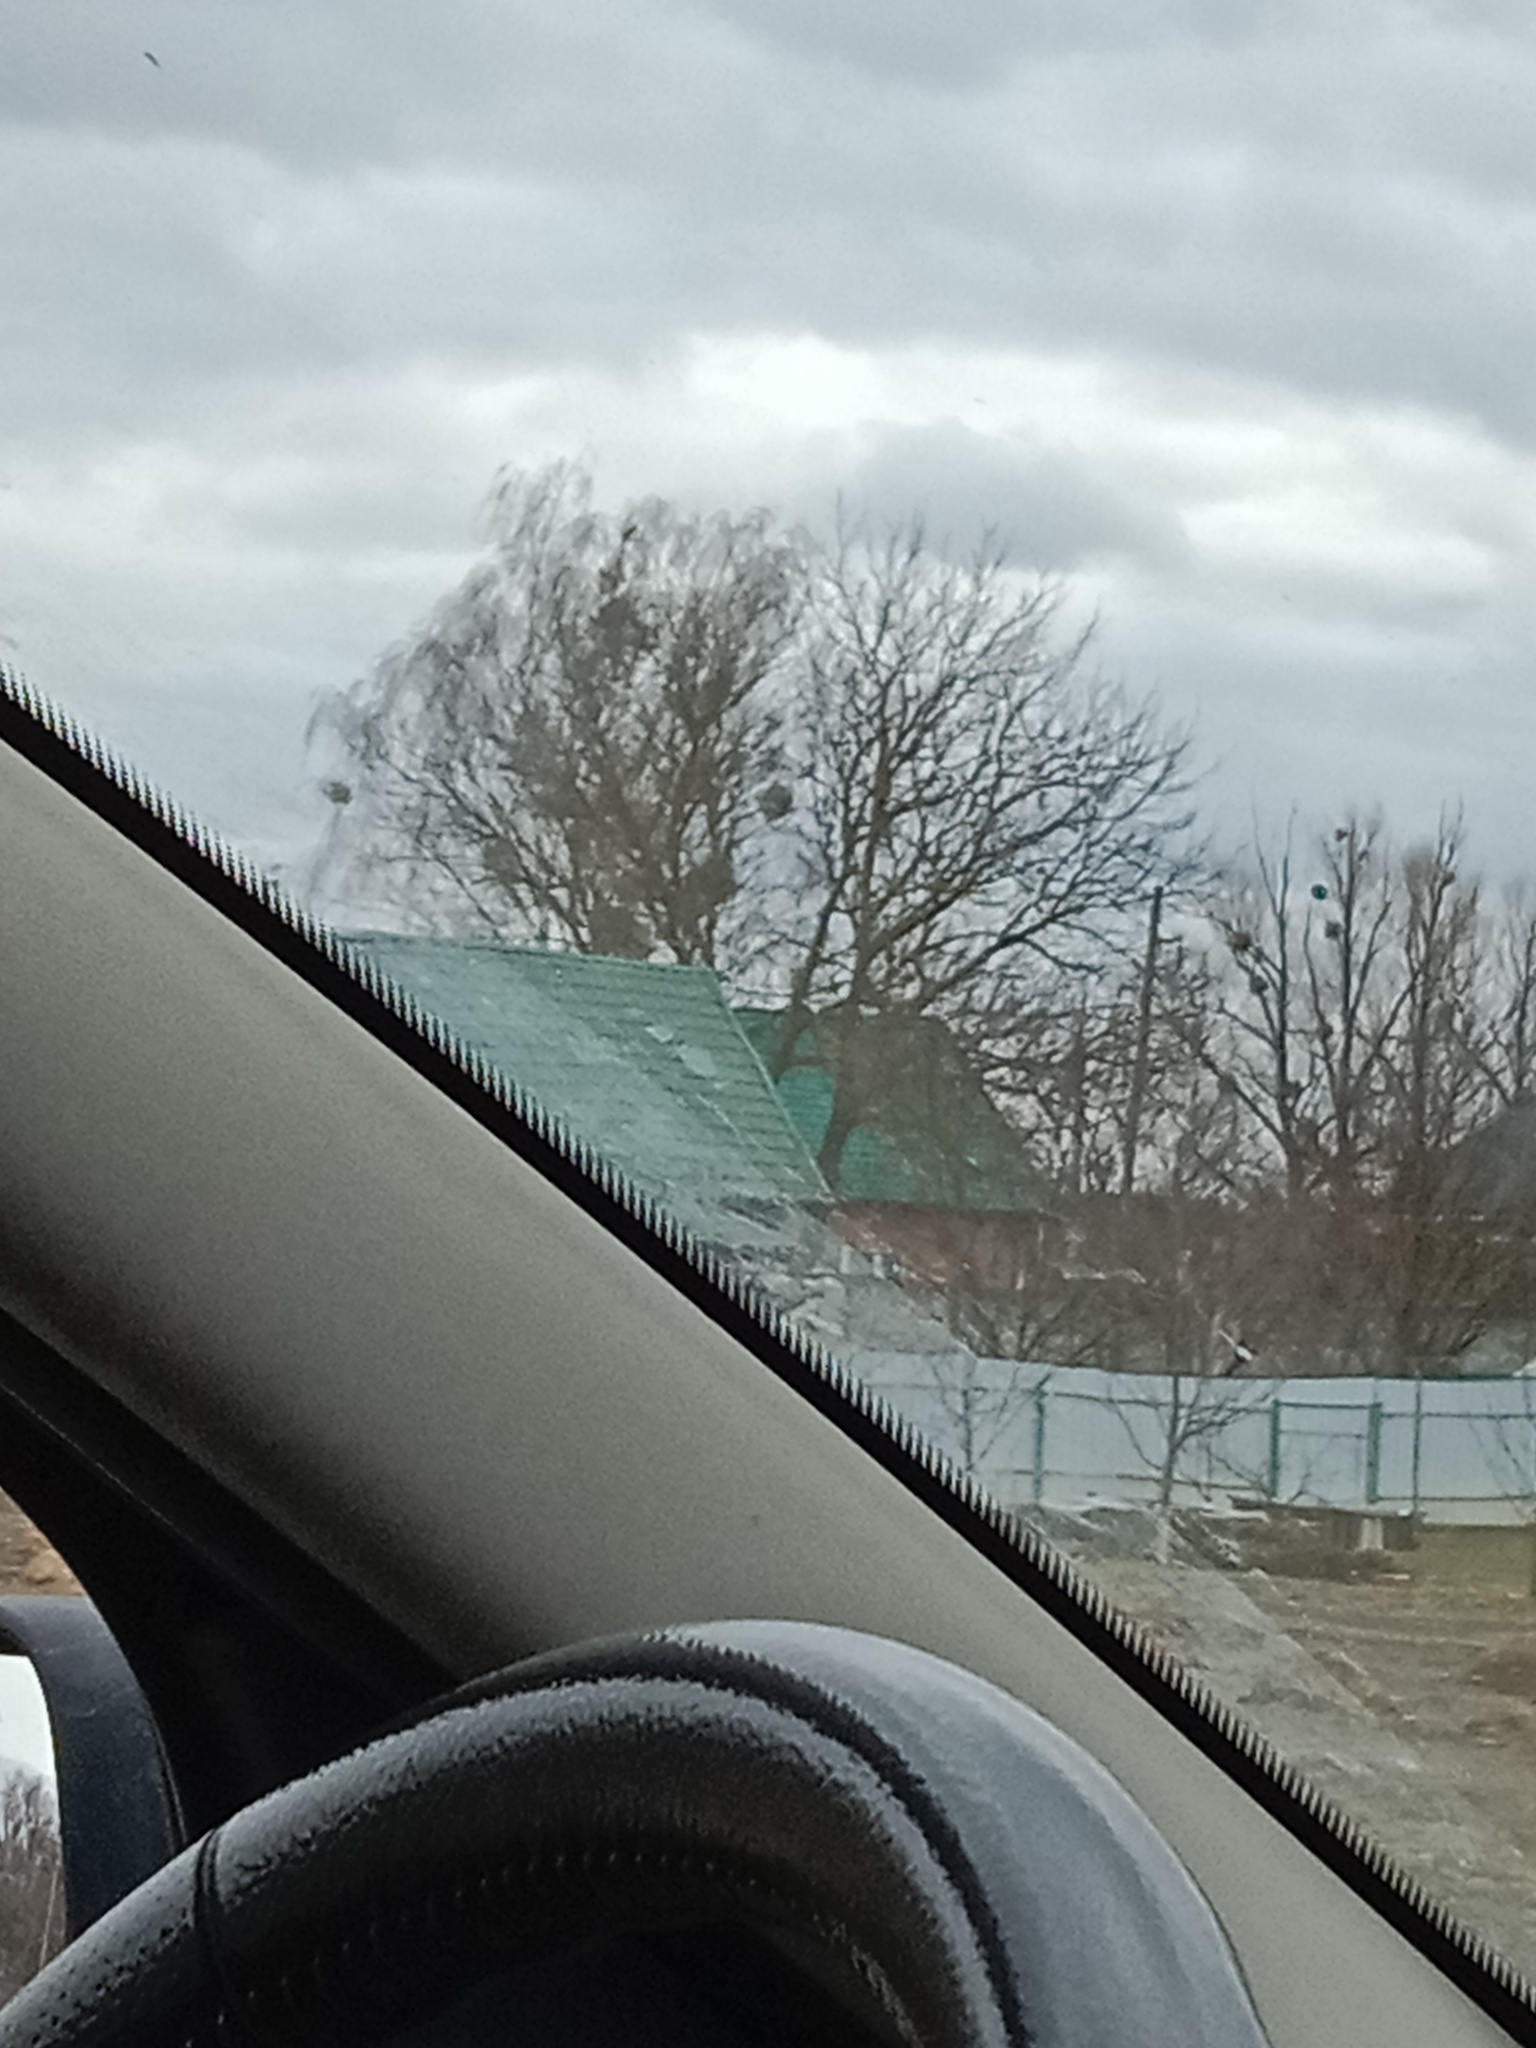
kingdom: Plantae
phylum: Tracheophyta
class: Magnoliopsida
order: Santalales
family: Viscaceae
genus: Viscum
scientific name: Viscum album
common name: Mistletoe
